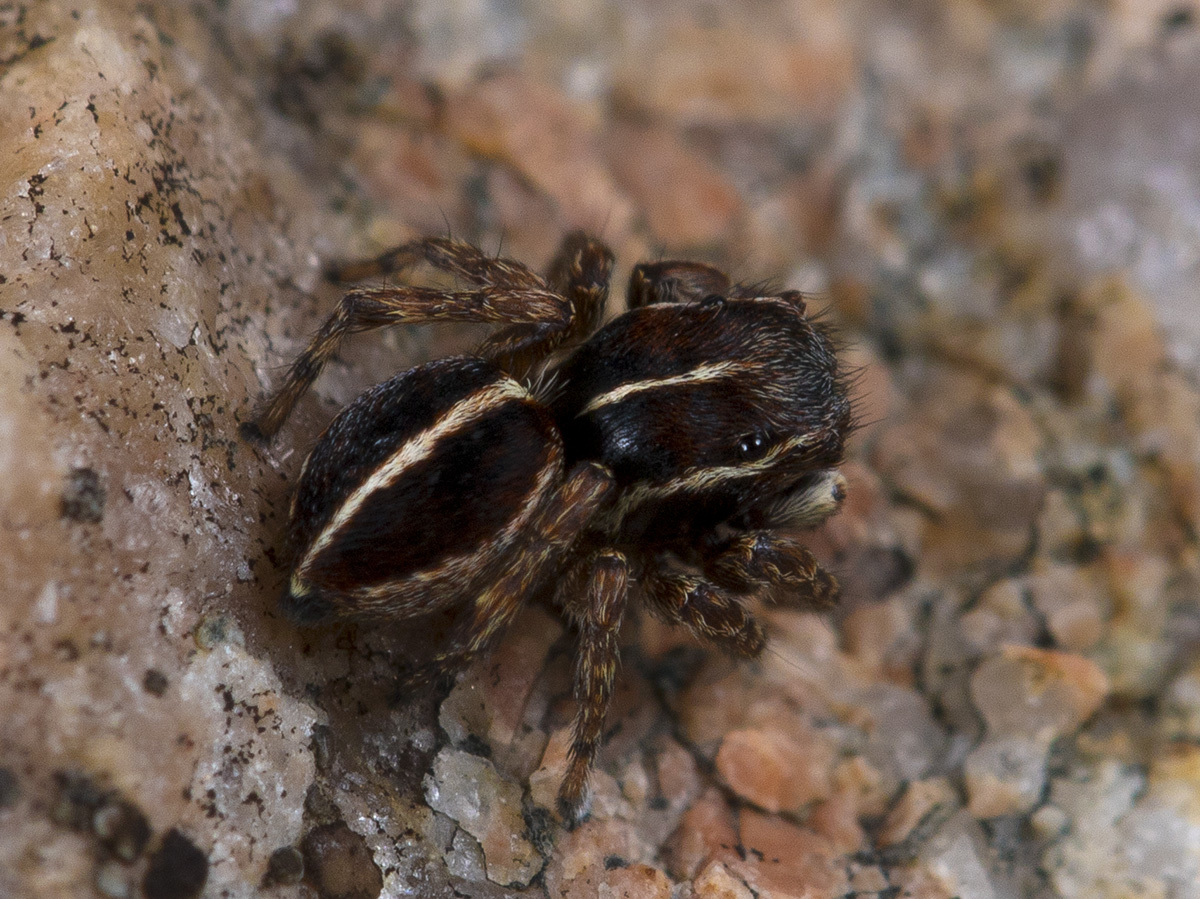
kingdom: Animalia
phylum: Arthropoda
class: Arachnida
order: Araneae
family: Salticidae
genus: Attulus
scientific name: Attulus monstrabilis
